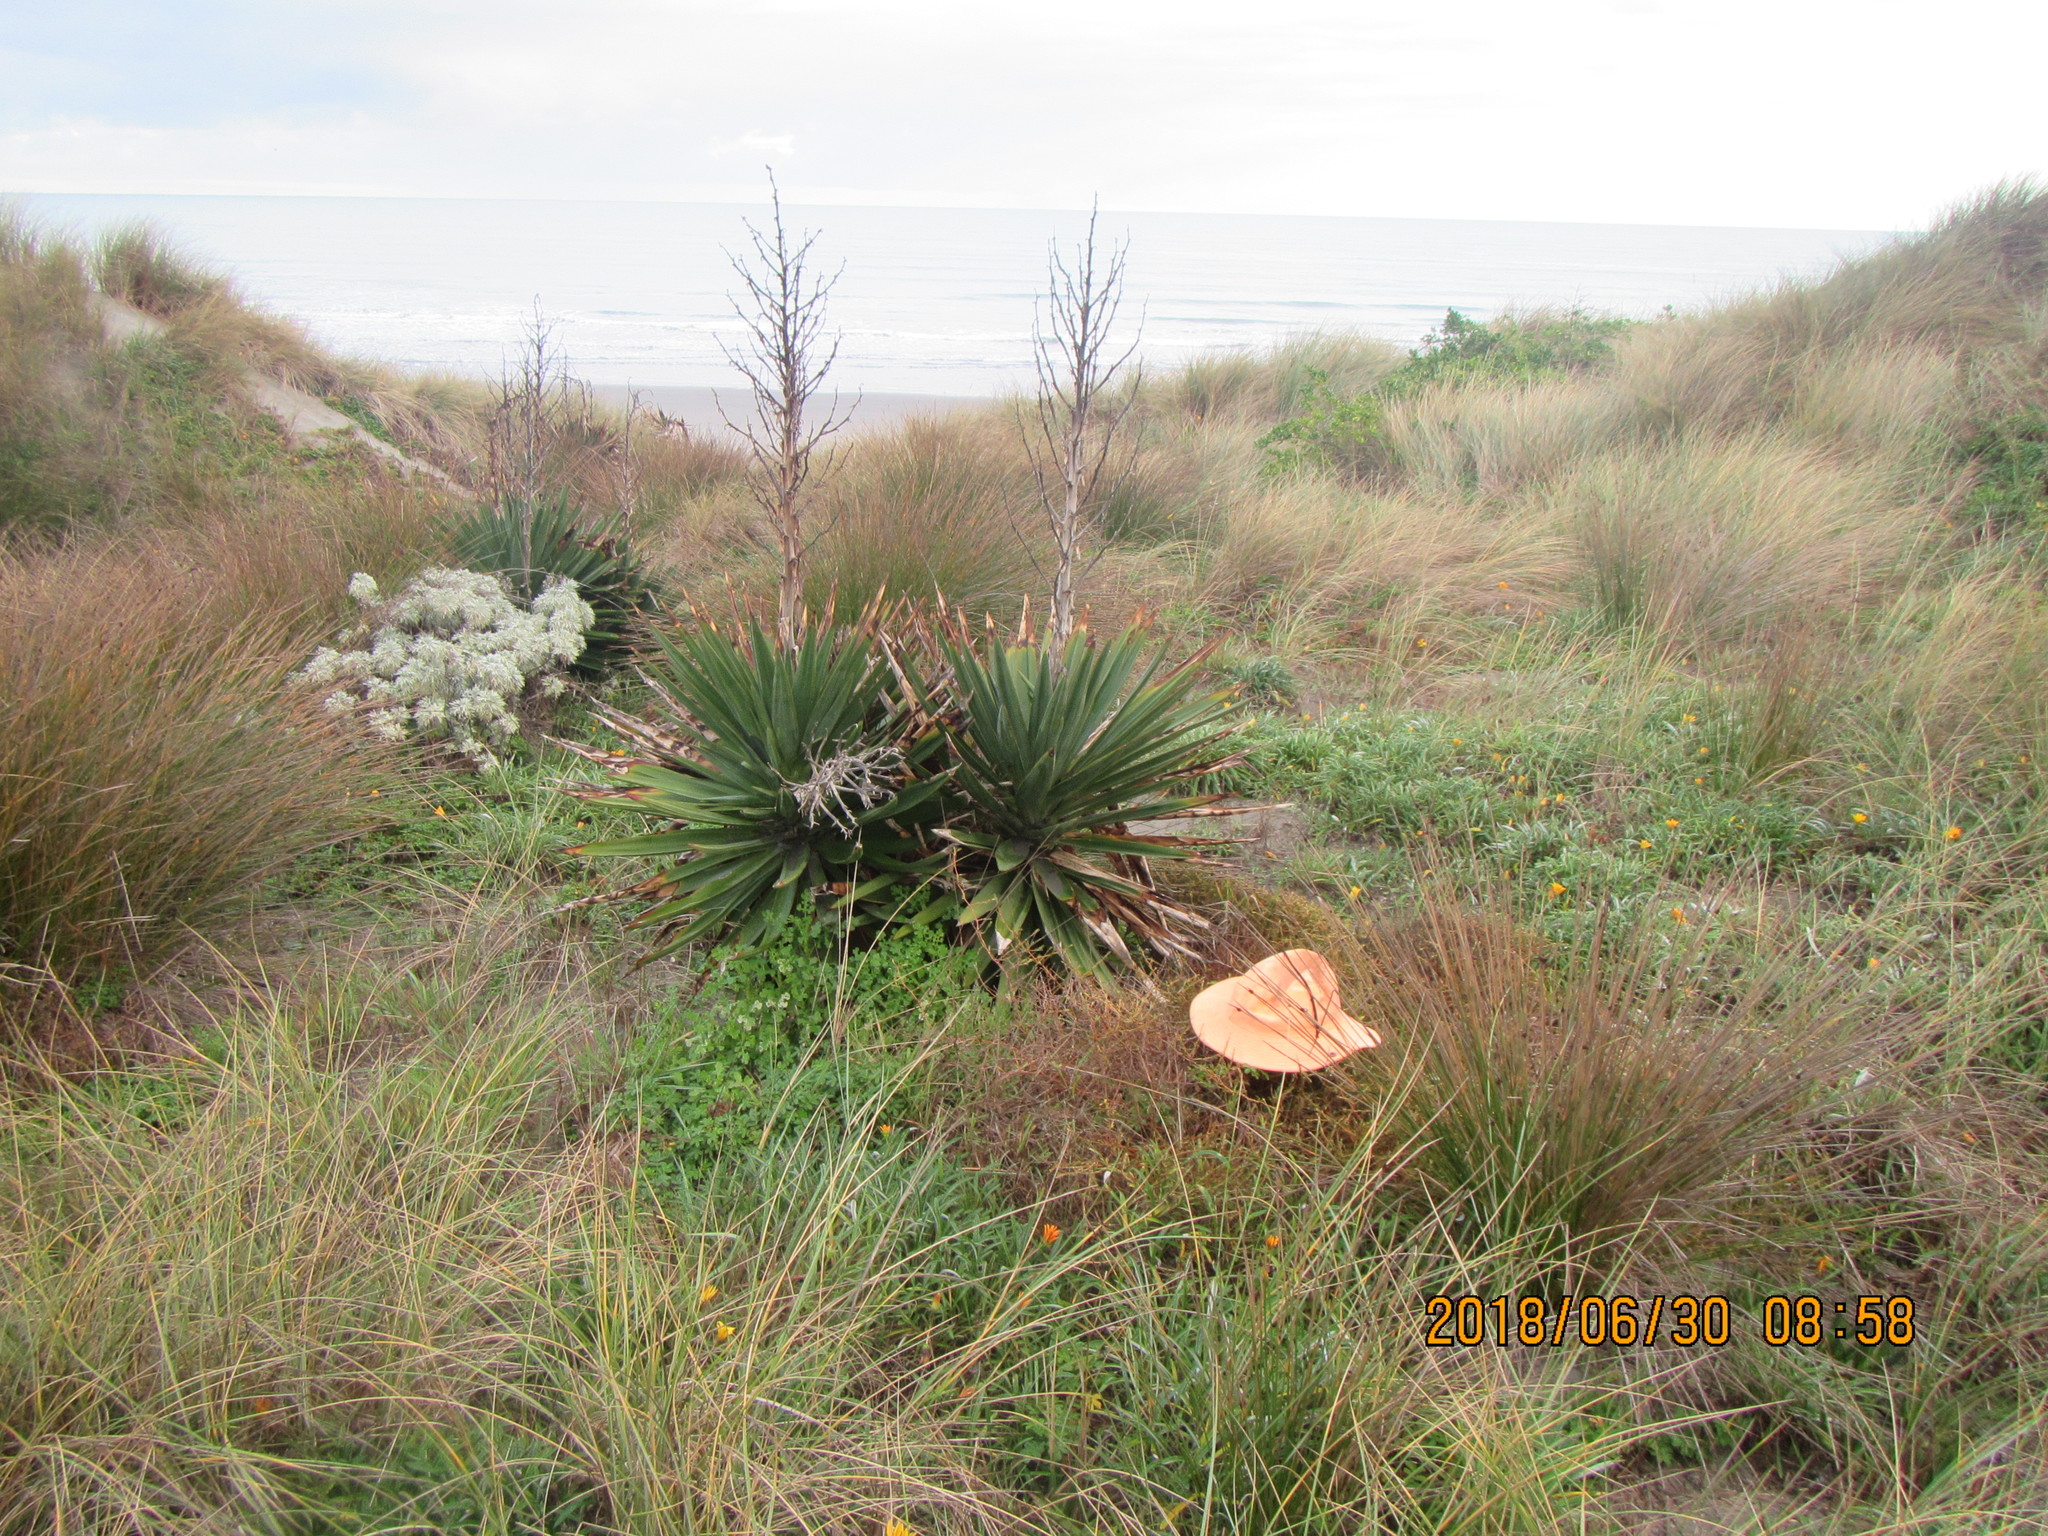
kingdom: Plantae
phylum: Tracheophyta
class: Magnoliopsida
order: Gentianales
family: Rubiaceae
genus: Coprosma
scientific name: Coprosma acerosa
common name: Sand coprosma
